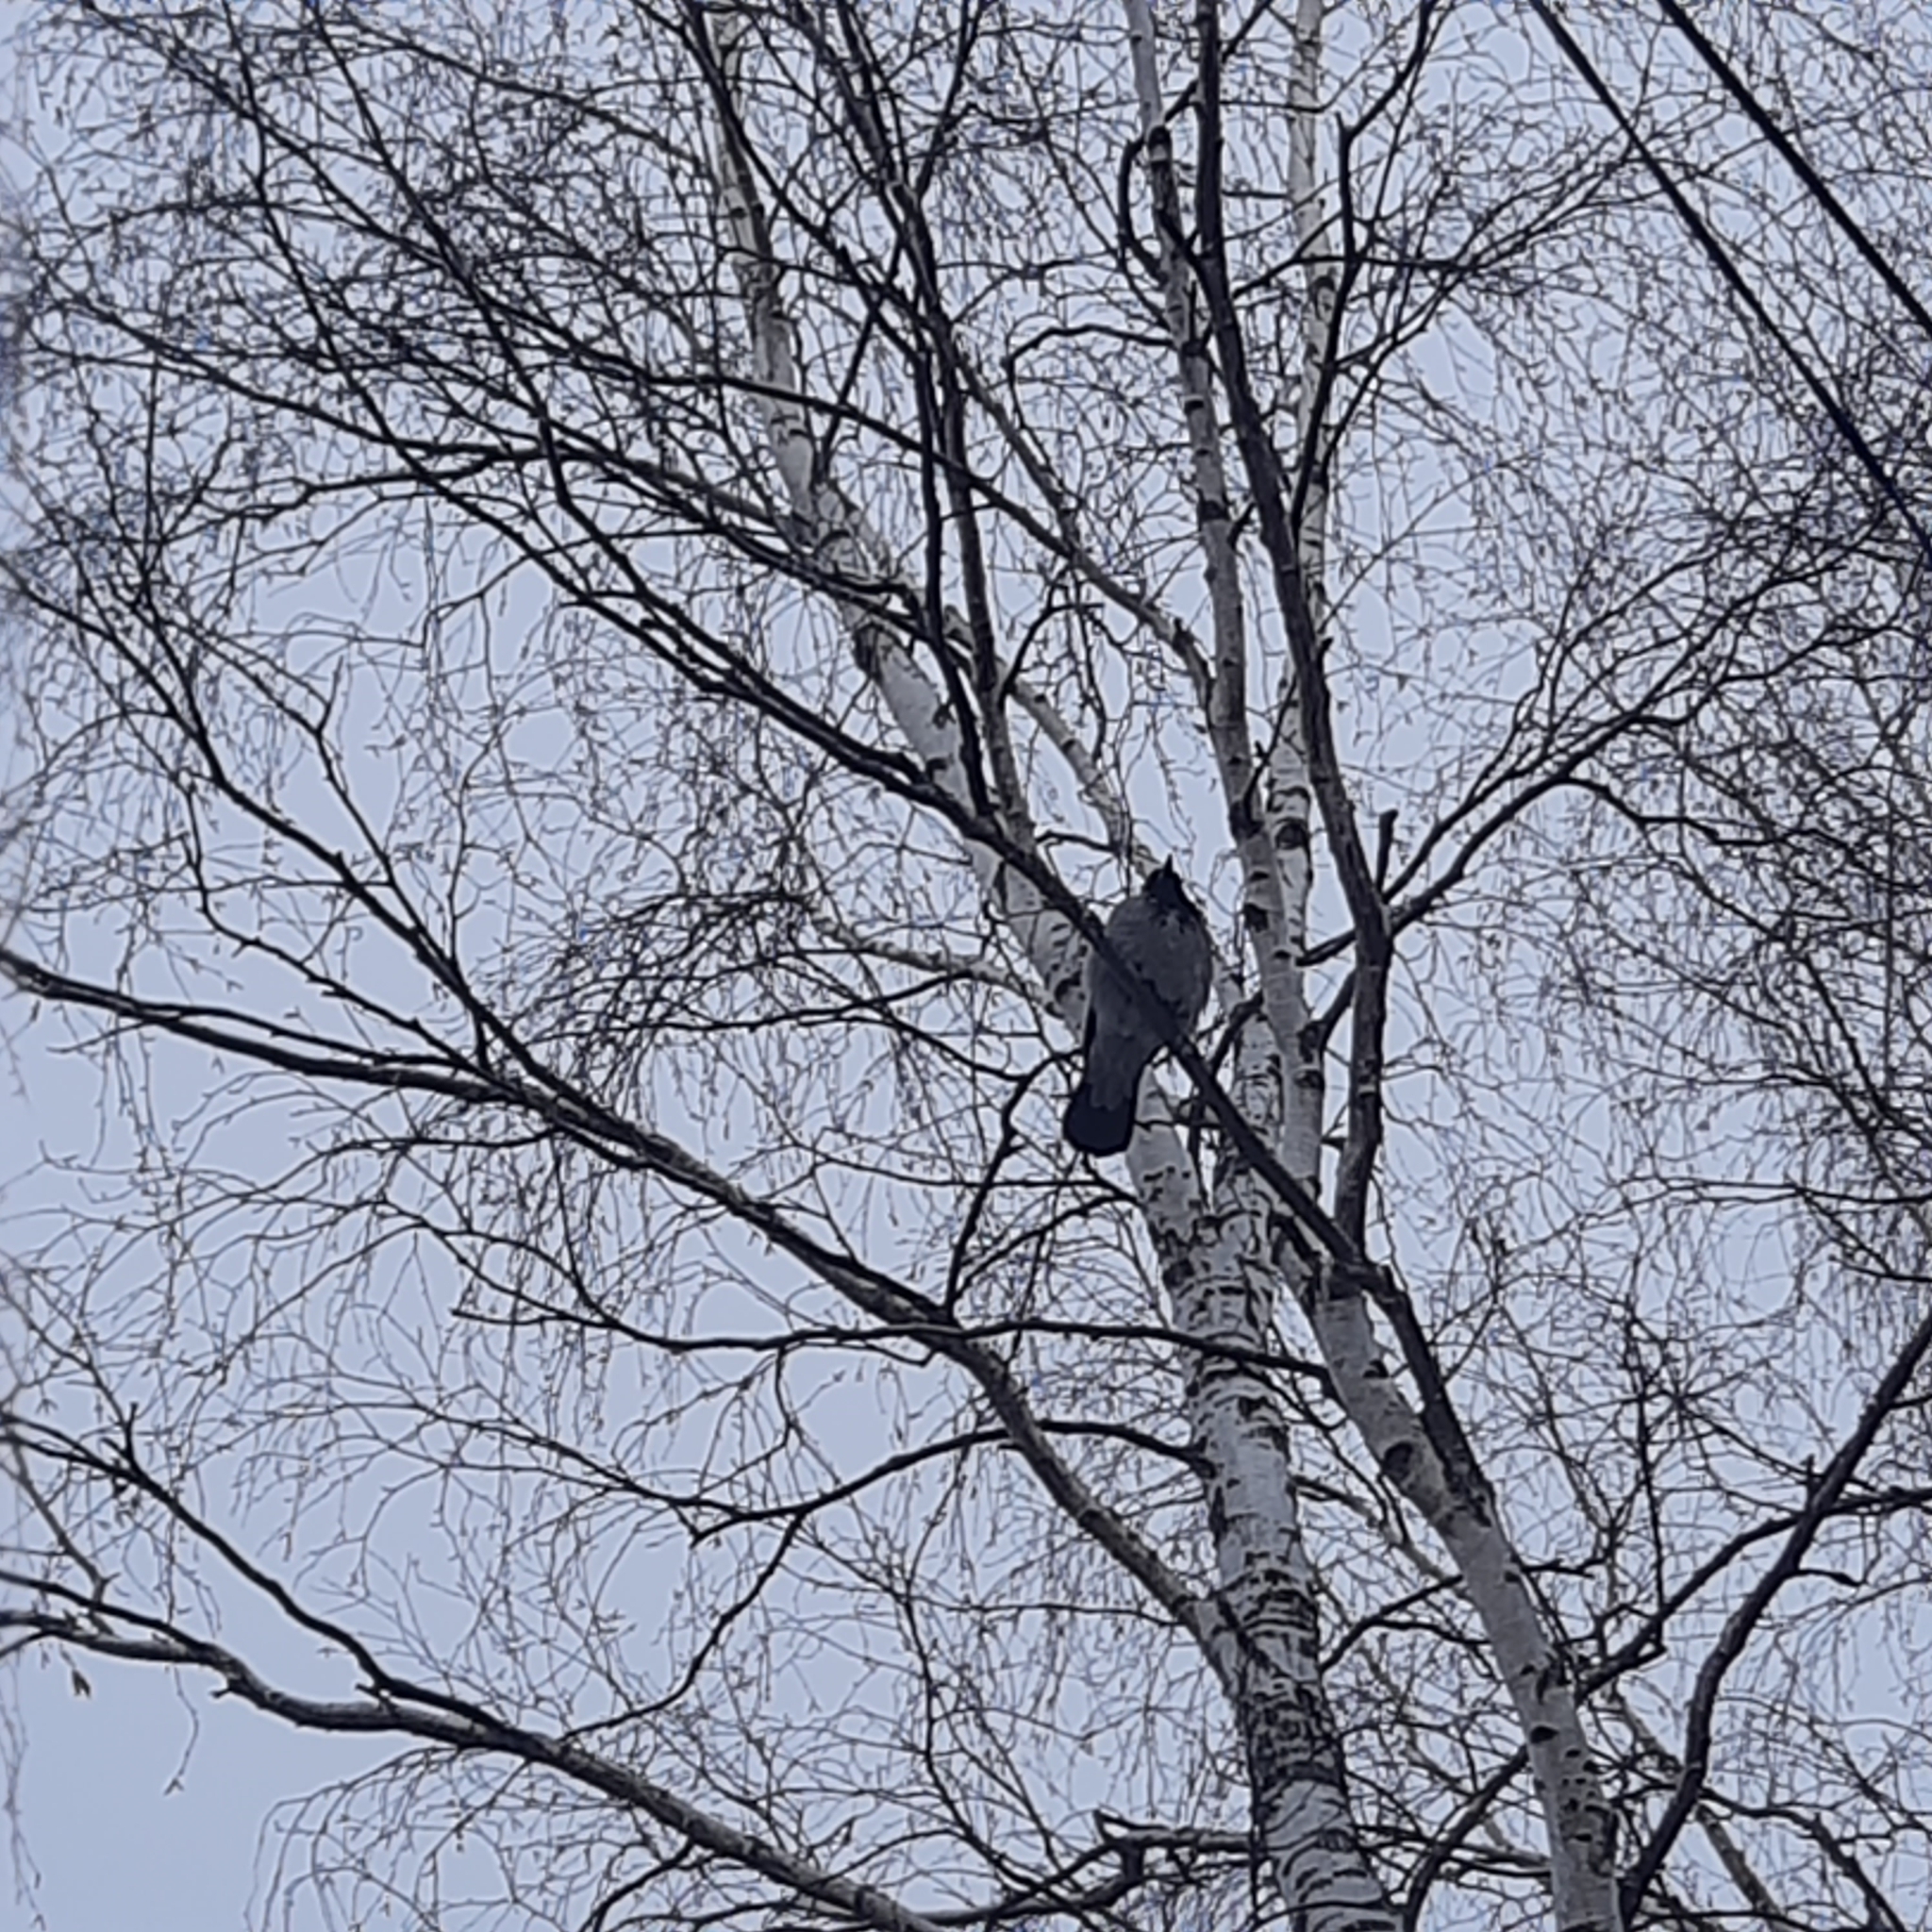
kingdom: Animalia
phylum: Chordata
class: Aves
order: Passeriformes
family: Corvidae
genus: Corvus
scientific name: Corvus cornix
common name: Hooded crow
